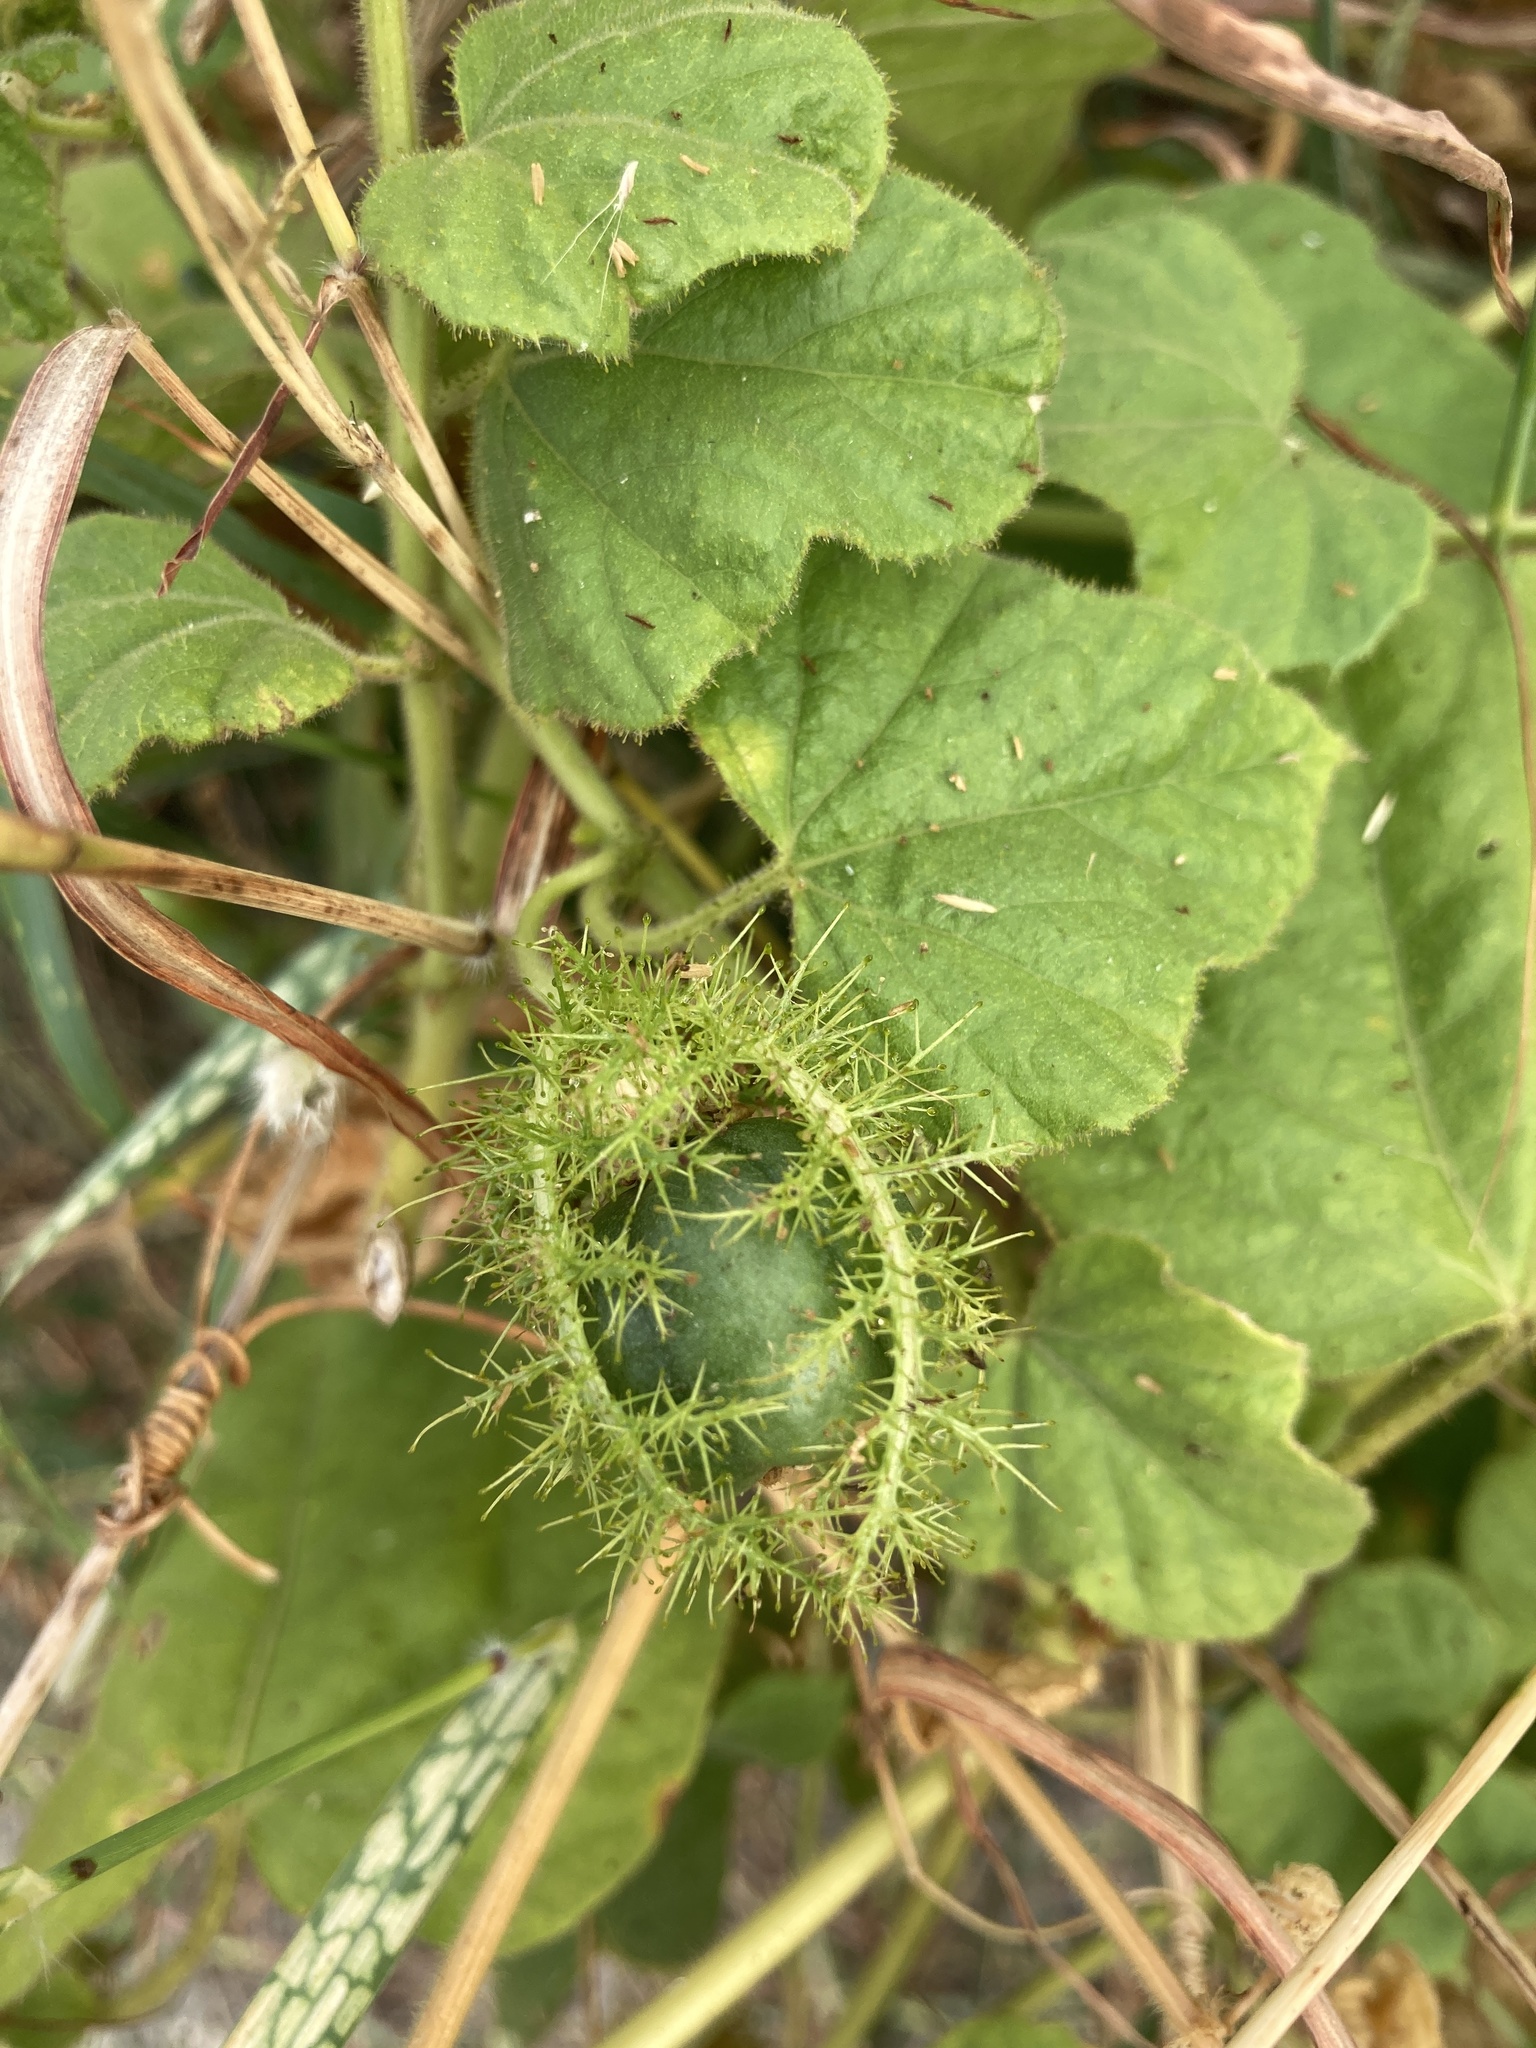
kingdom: Plantae
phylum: Tracheophyta
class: Magnoliopsida
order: Malpighiales
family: Passifloraceae
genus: Passiflora
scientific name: Passiflora vesicaria
